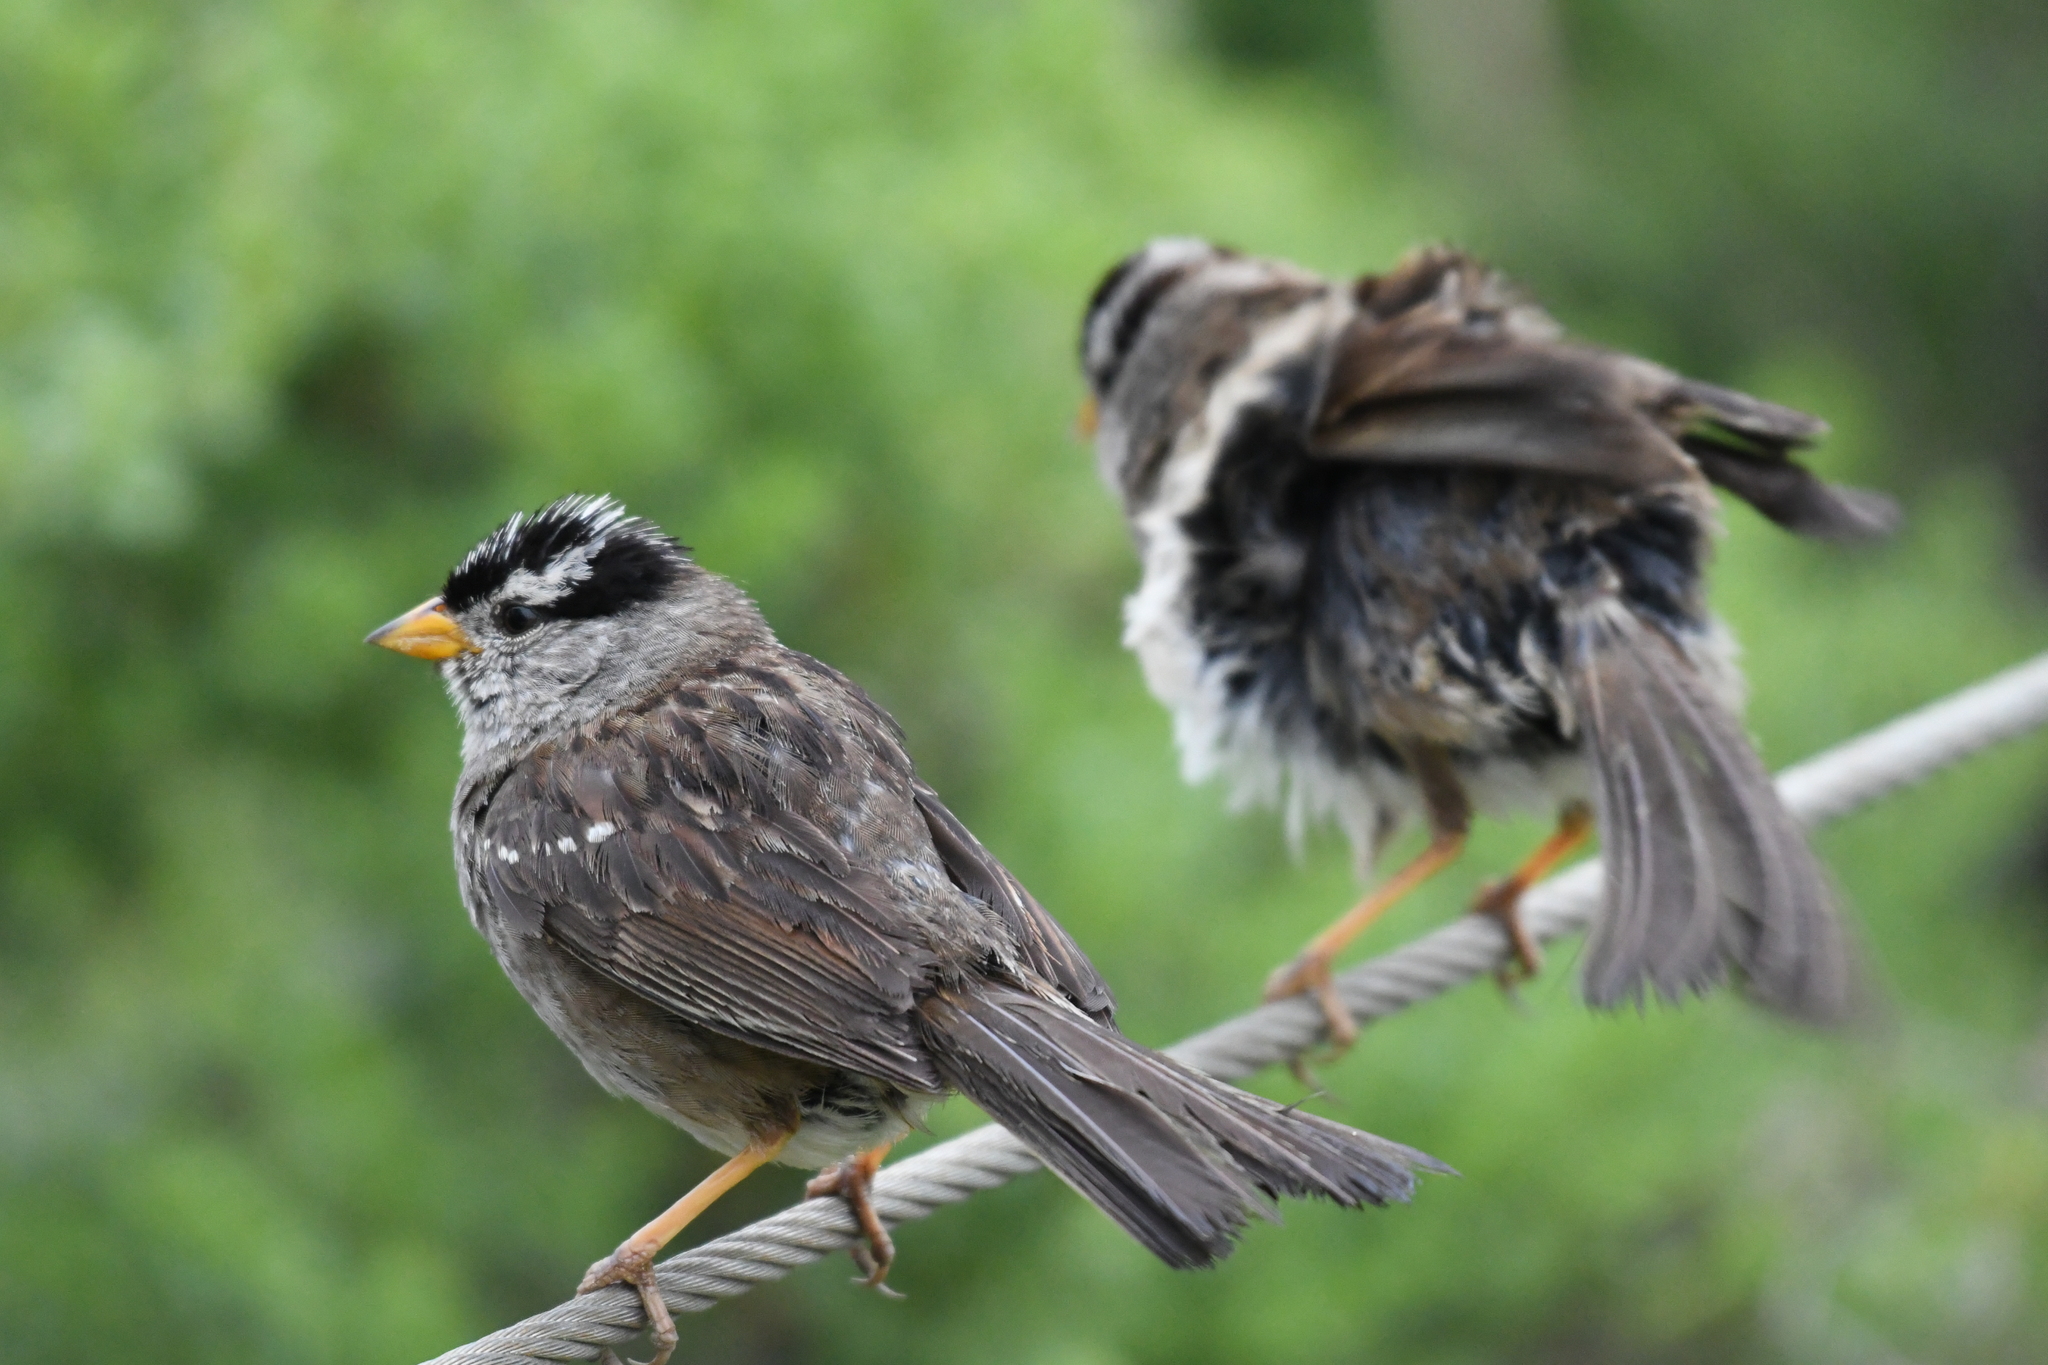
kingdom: Animalia
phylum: Chordata
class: Aves
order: Passeriformes
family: Passerellidae
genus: Zonotrichia
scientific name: Zonotrichia leucophrys
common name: White-crowned sparrow
